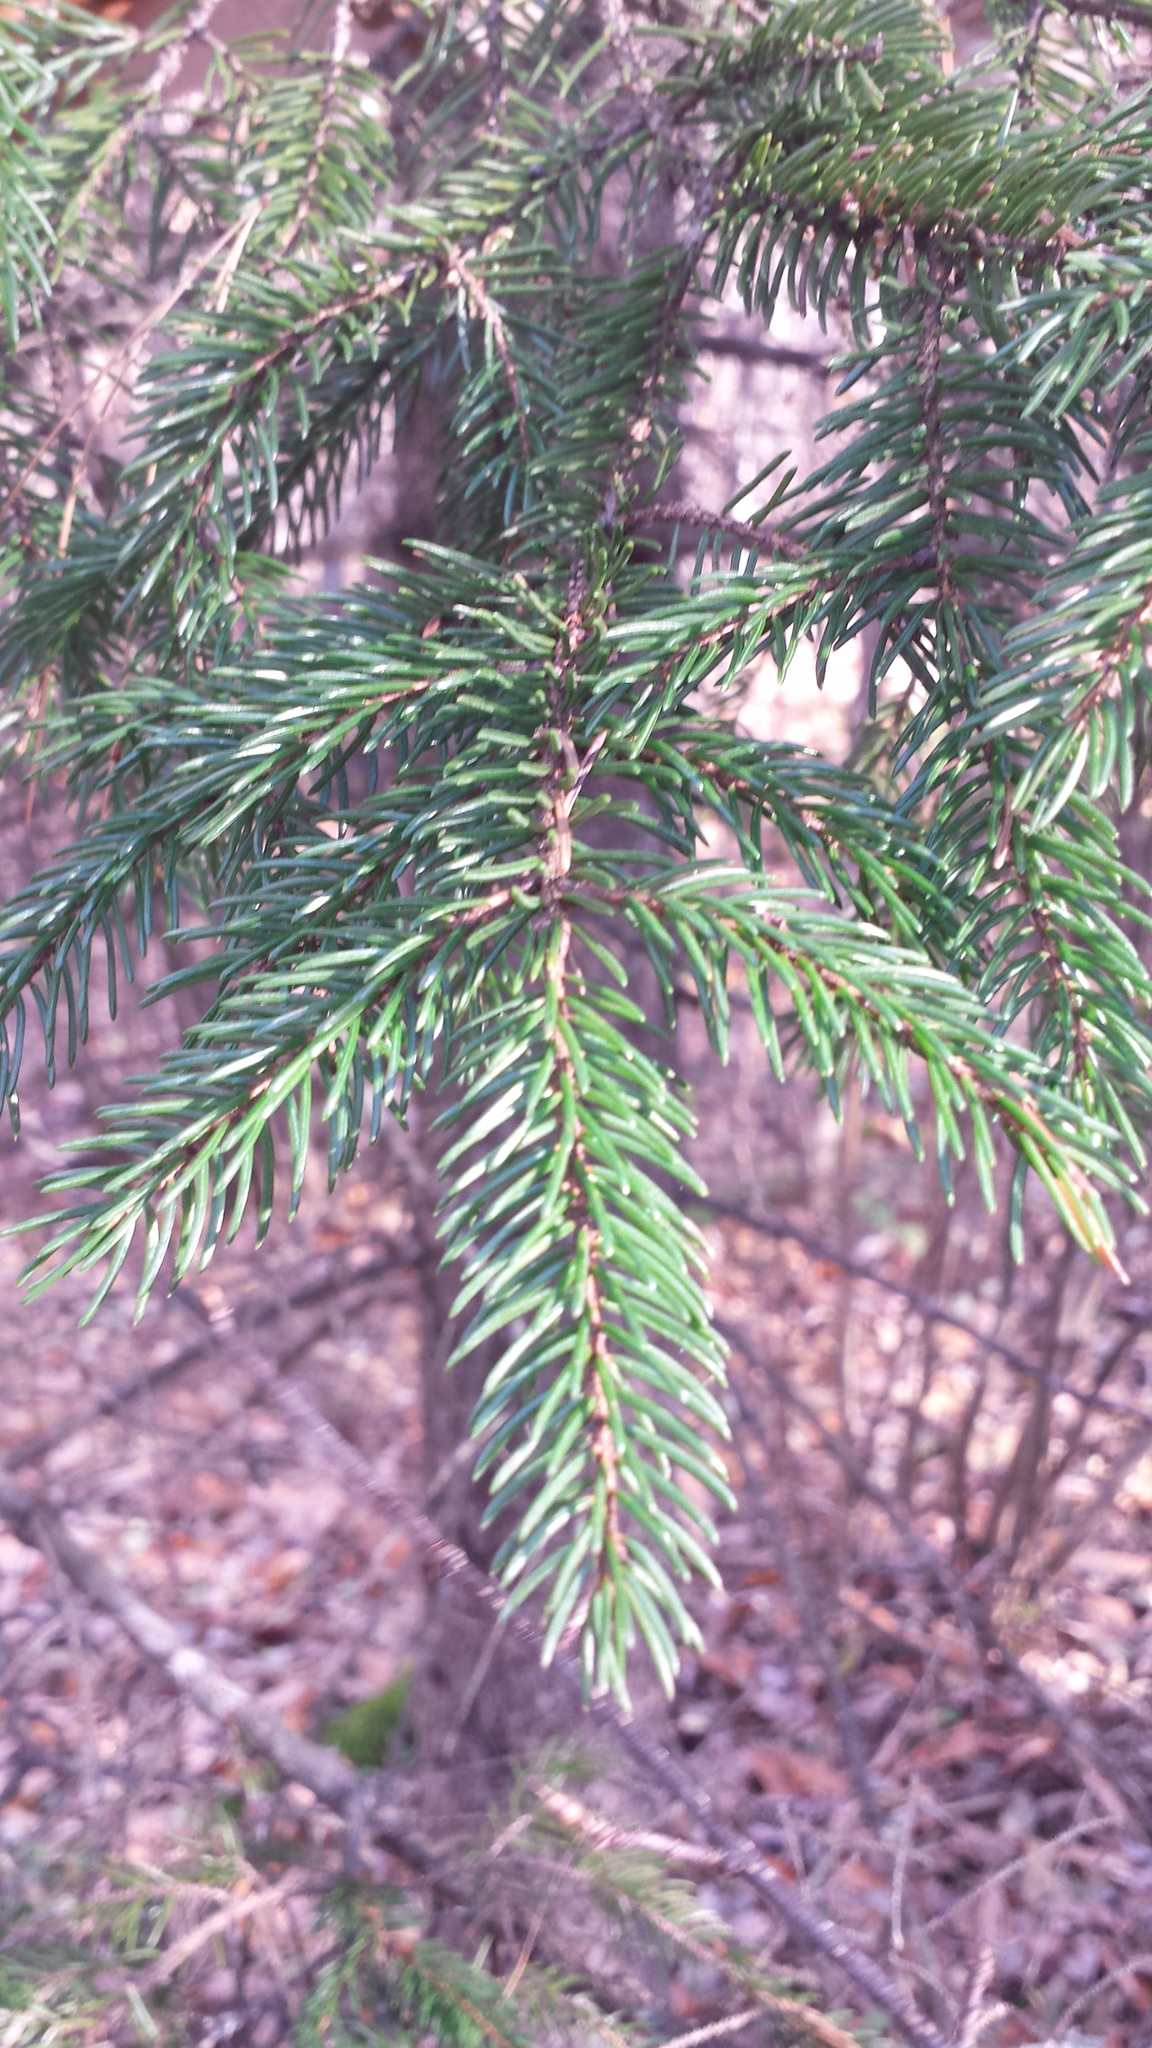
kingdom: Plantae
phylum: Tracheophyta
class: Pinopsida
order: Pinales
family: Pinaceae
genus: Picea
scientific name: Picea rubens
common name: Red spruce
